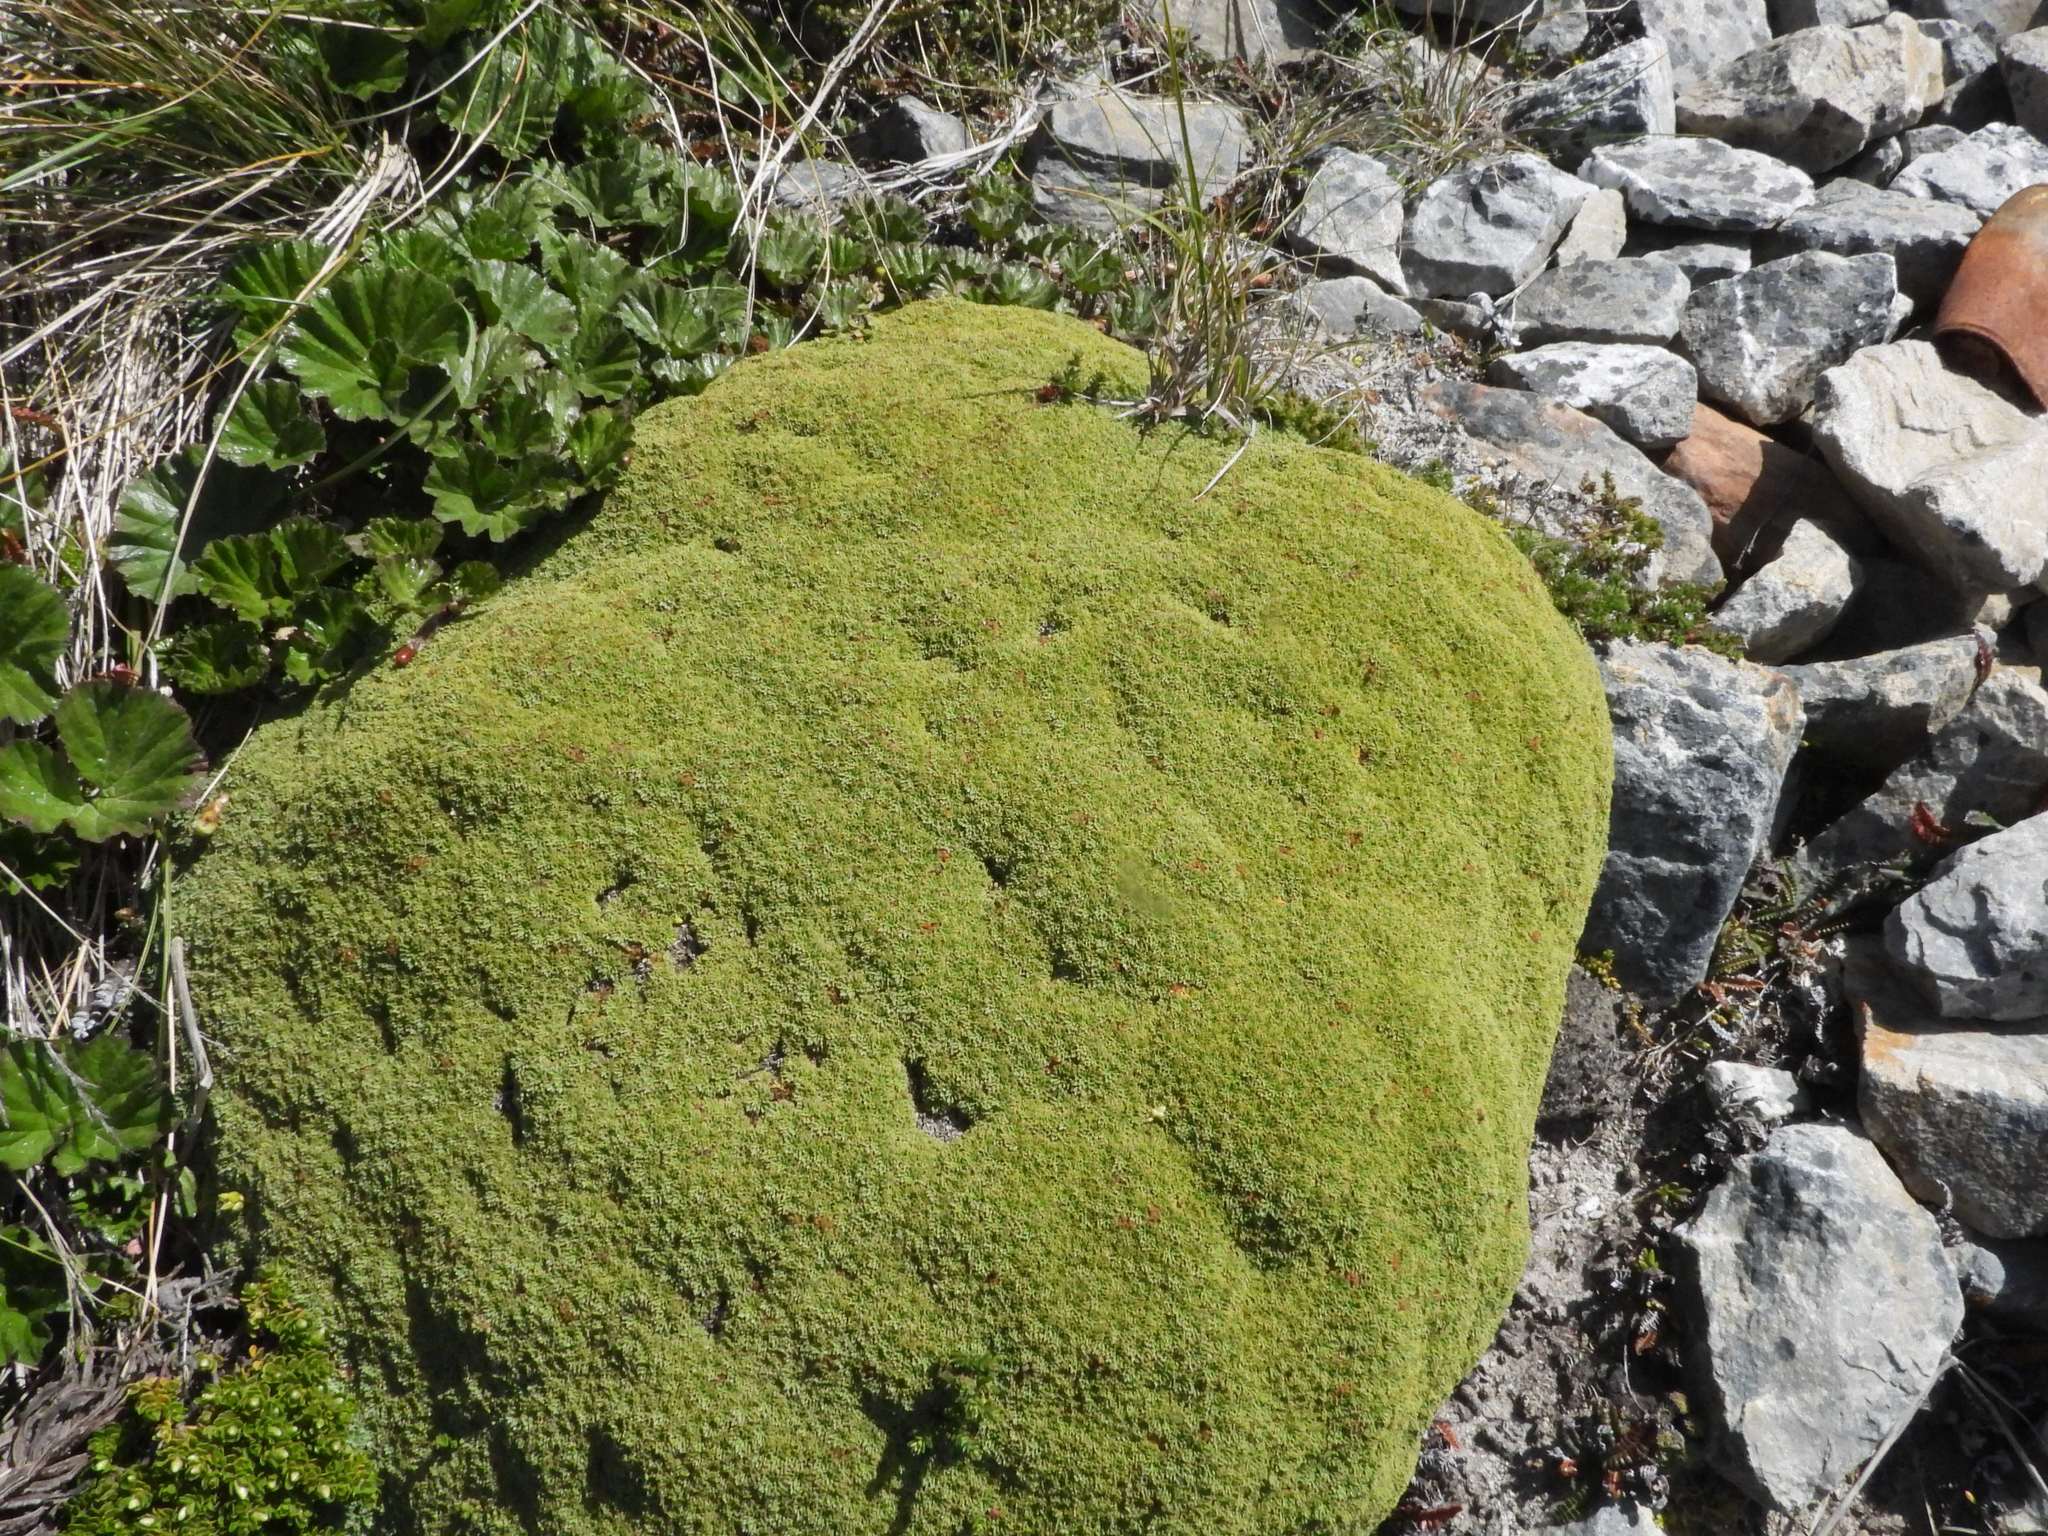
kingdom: Plantae
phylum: Tracheophyta
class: Magnoliopsida
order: Apiales
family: Apiaceae
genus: Bolax
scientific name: Bolax gummifera
